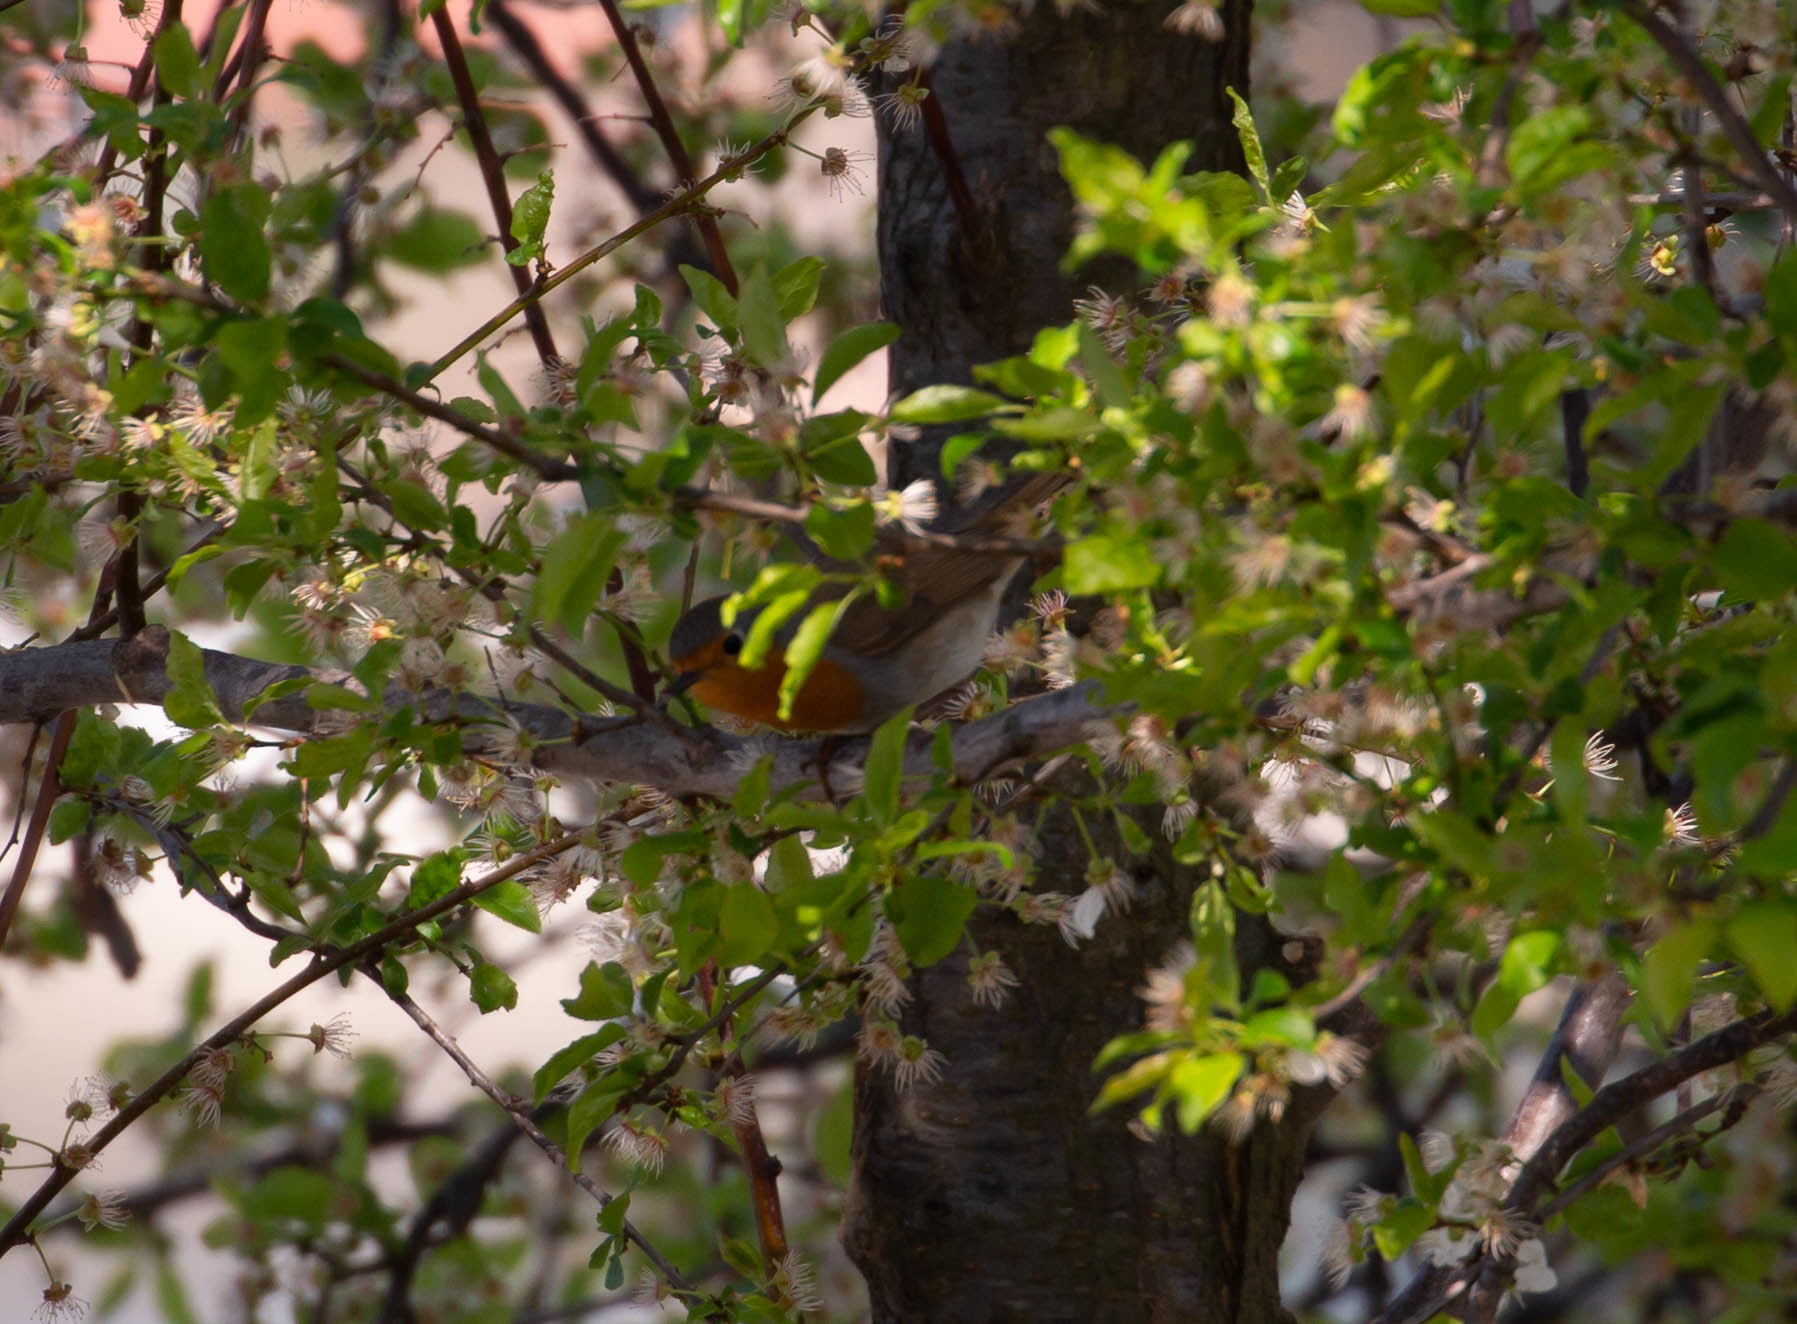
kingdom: Animalia
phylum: Chordata
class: Aves
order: Passeriformes
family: Muscicapidae
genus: Erithacus
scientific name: Erithacus rubecula
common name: European robin
